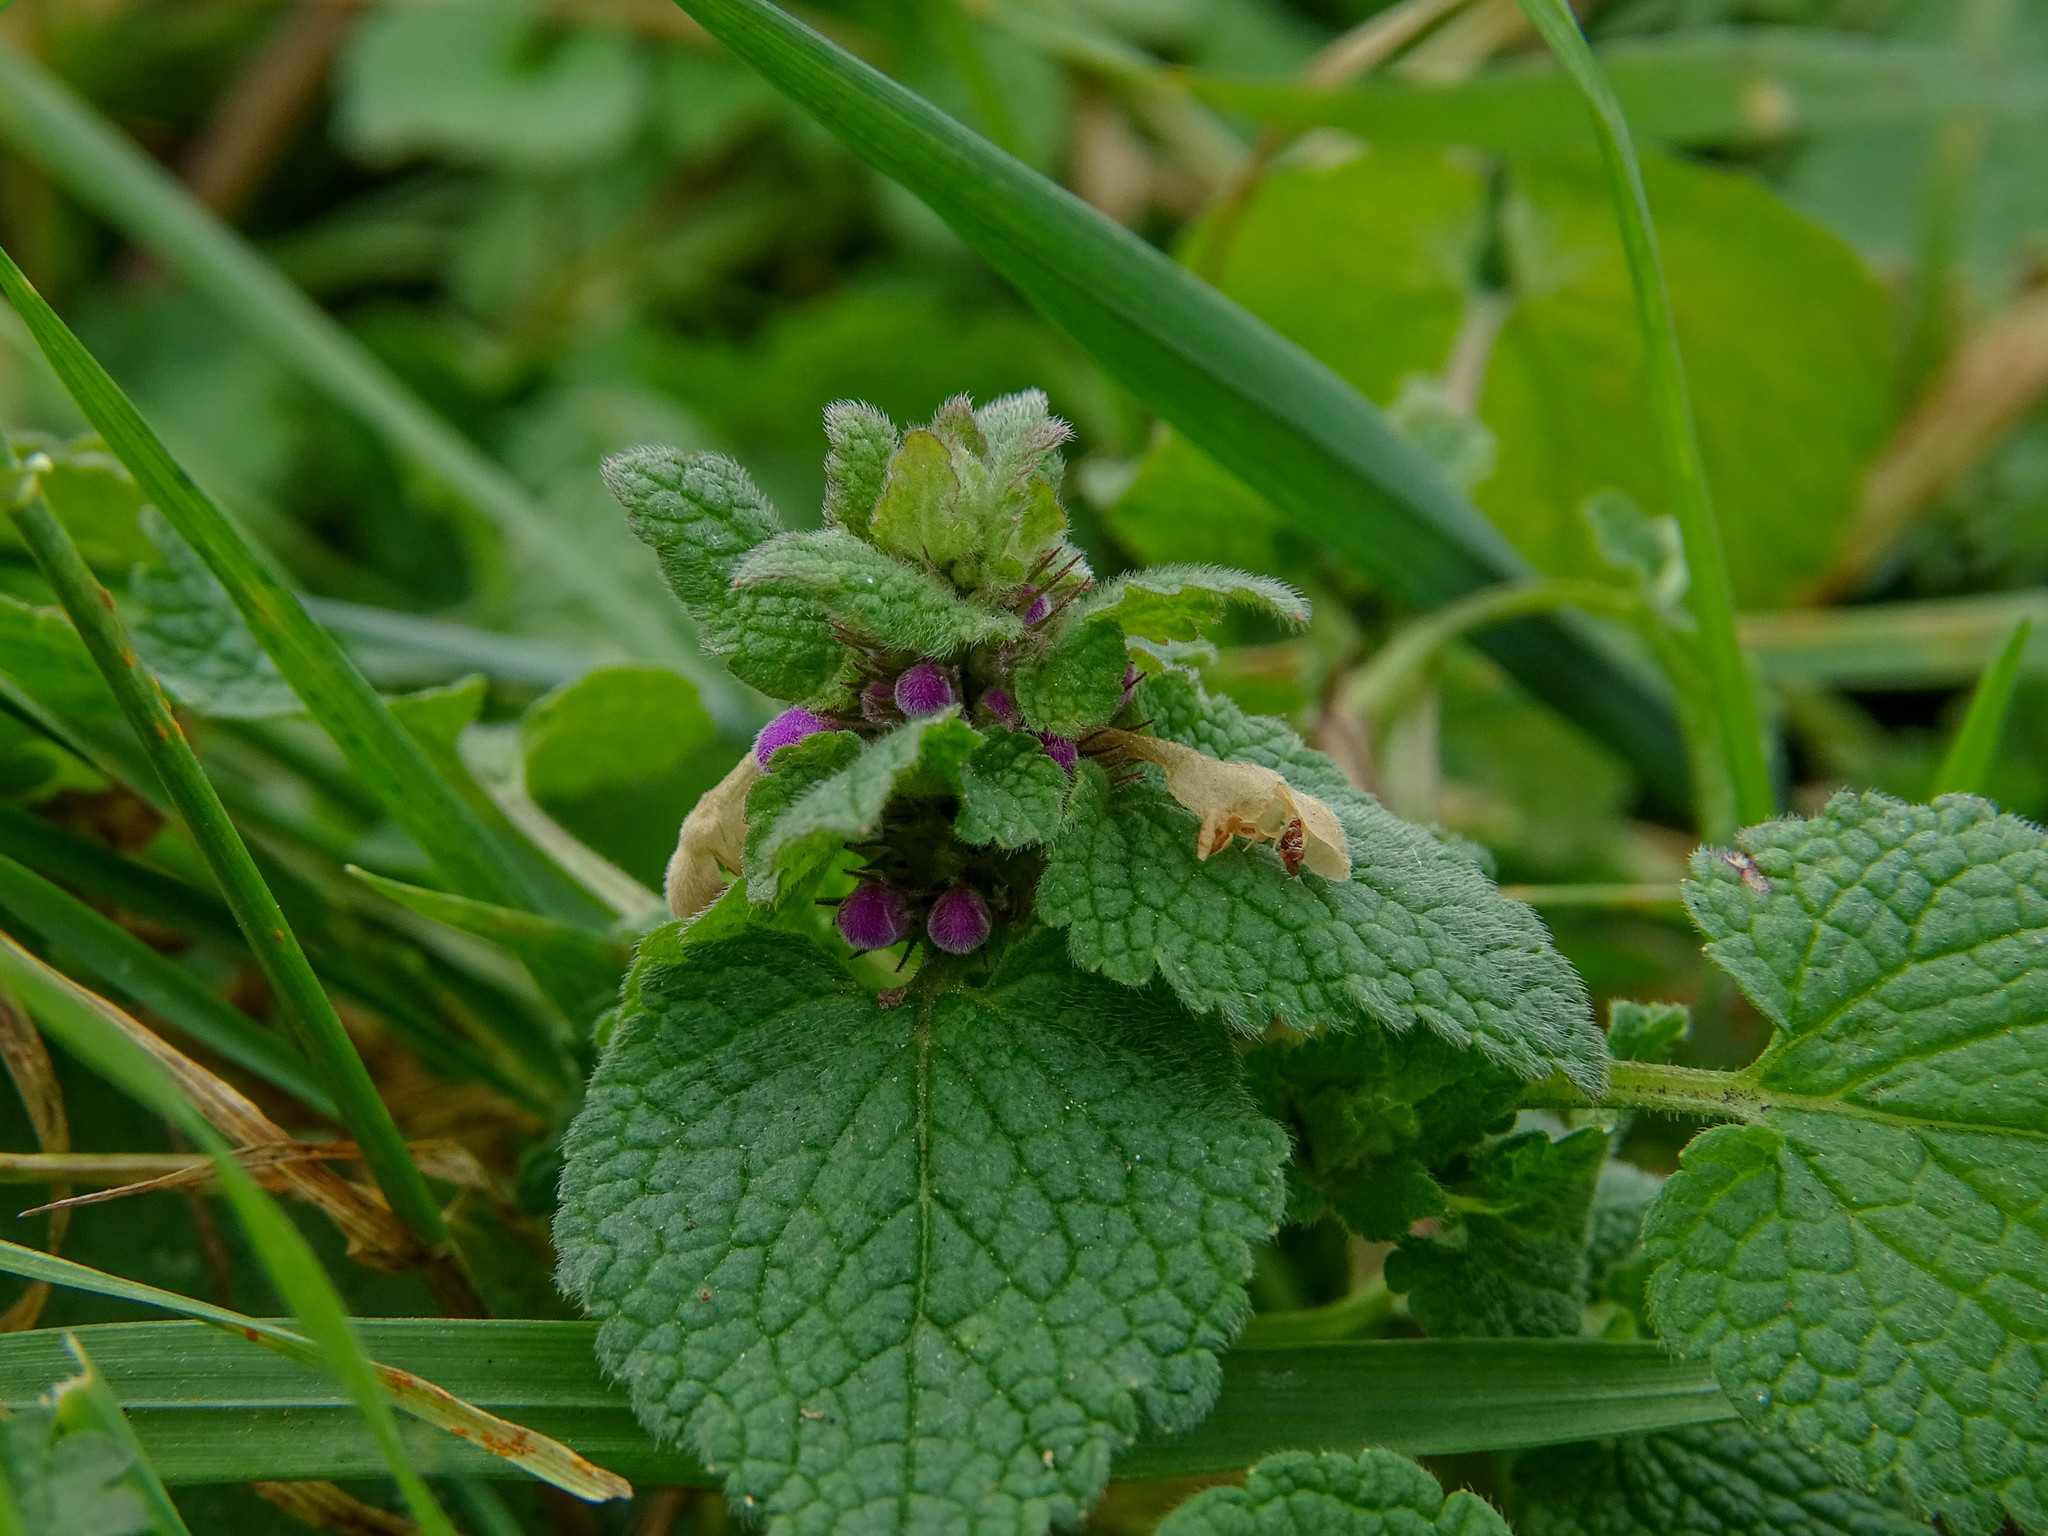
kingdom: Plantae
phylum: Tracheophyta
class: Magnoliopsida
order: Lamiales
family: Lamiaceae
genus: Lamium
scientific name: Lamium purpureum
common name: Red dead-nettle
